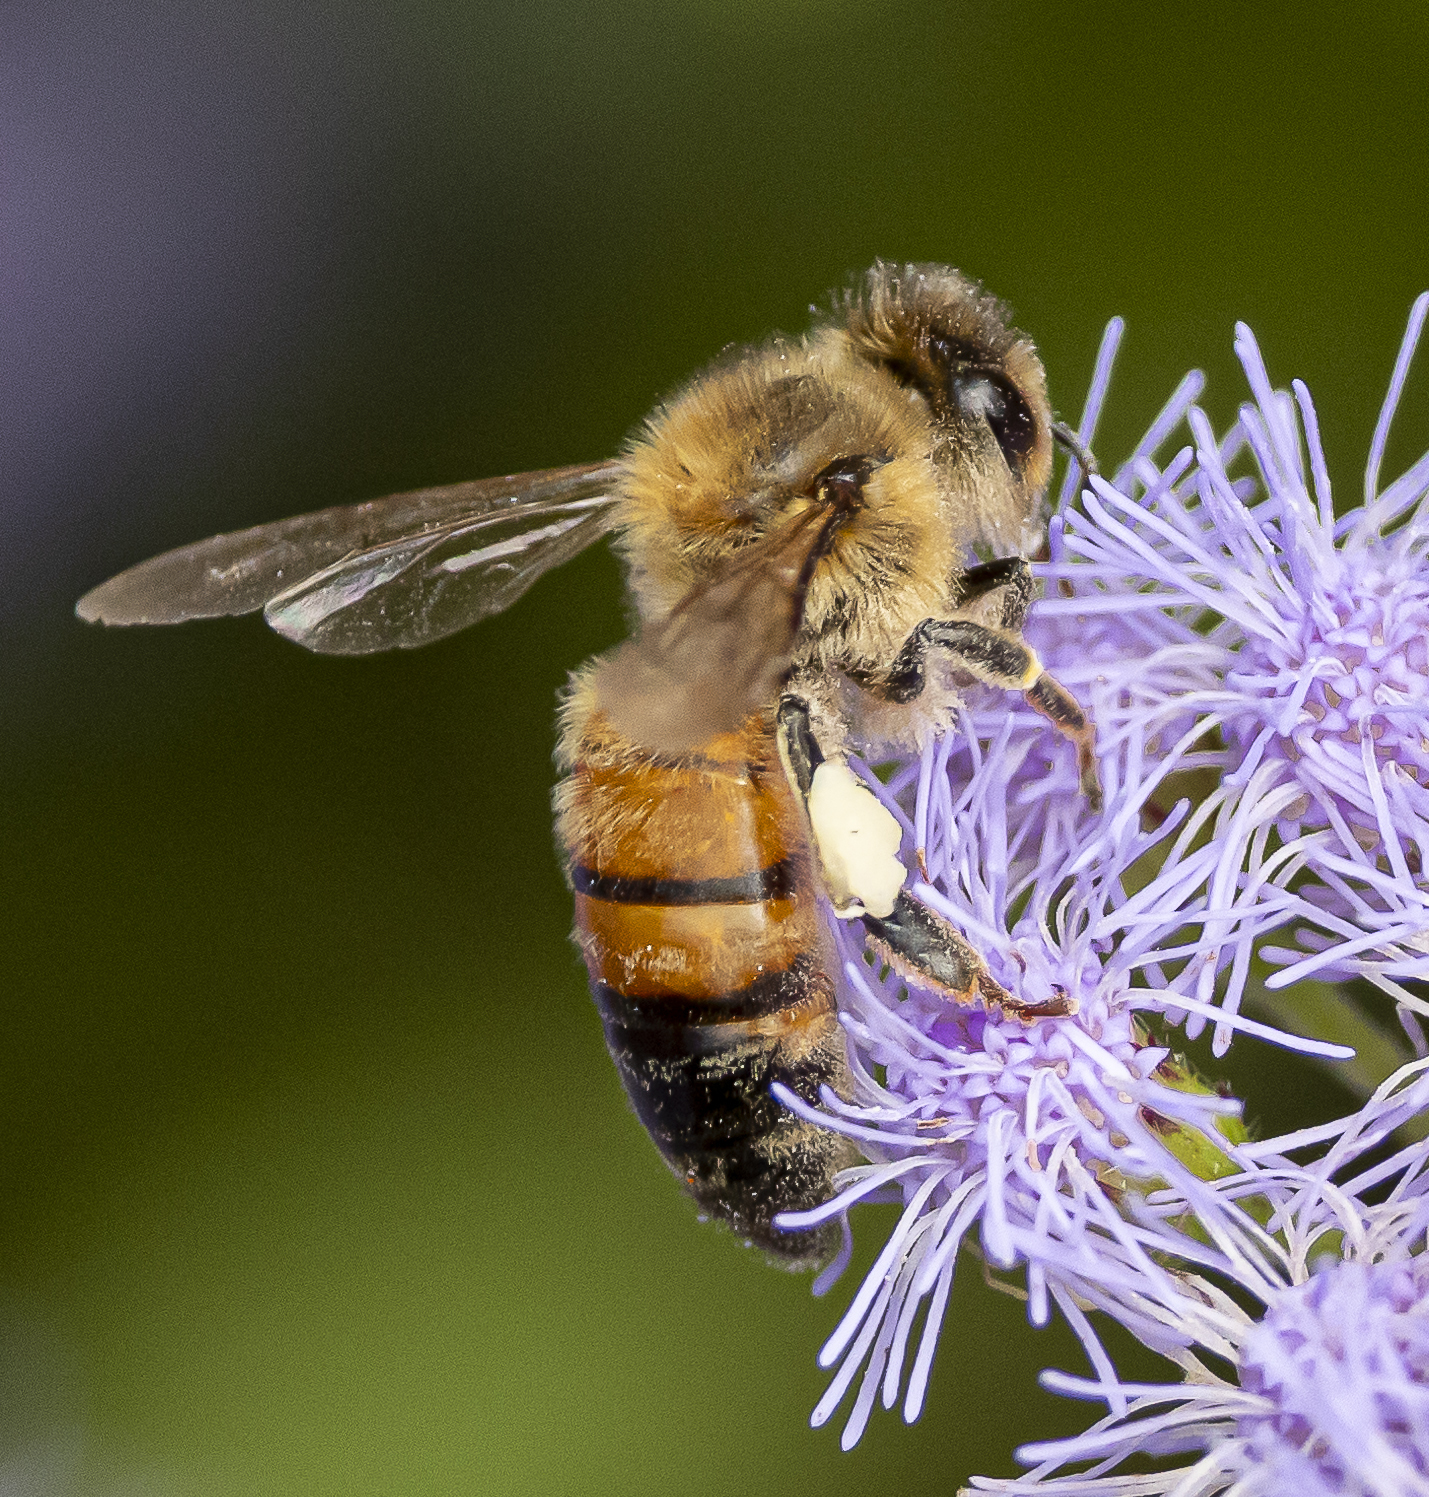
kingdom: Animalia
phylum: Arthropoda
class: Insecta
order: Hymenoptera
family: Apidae
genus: Apis
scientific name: Apis mellifera
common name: Honey bee
